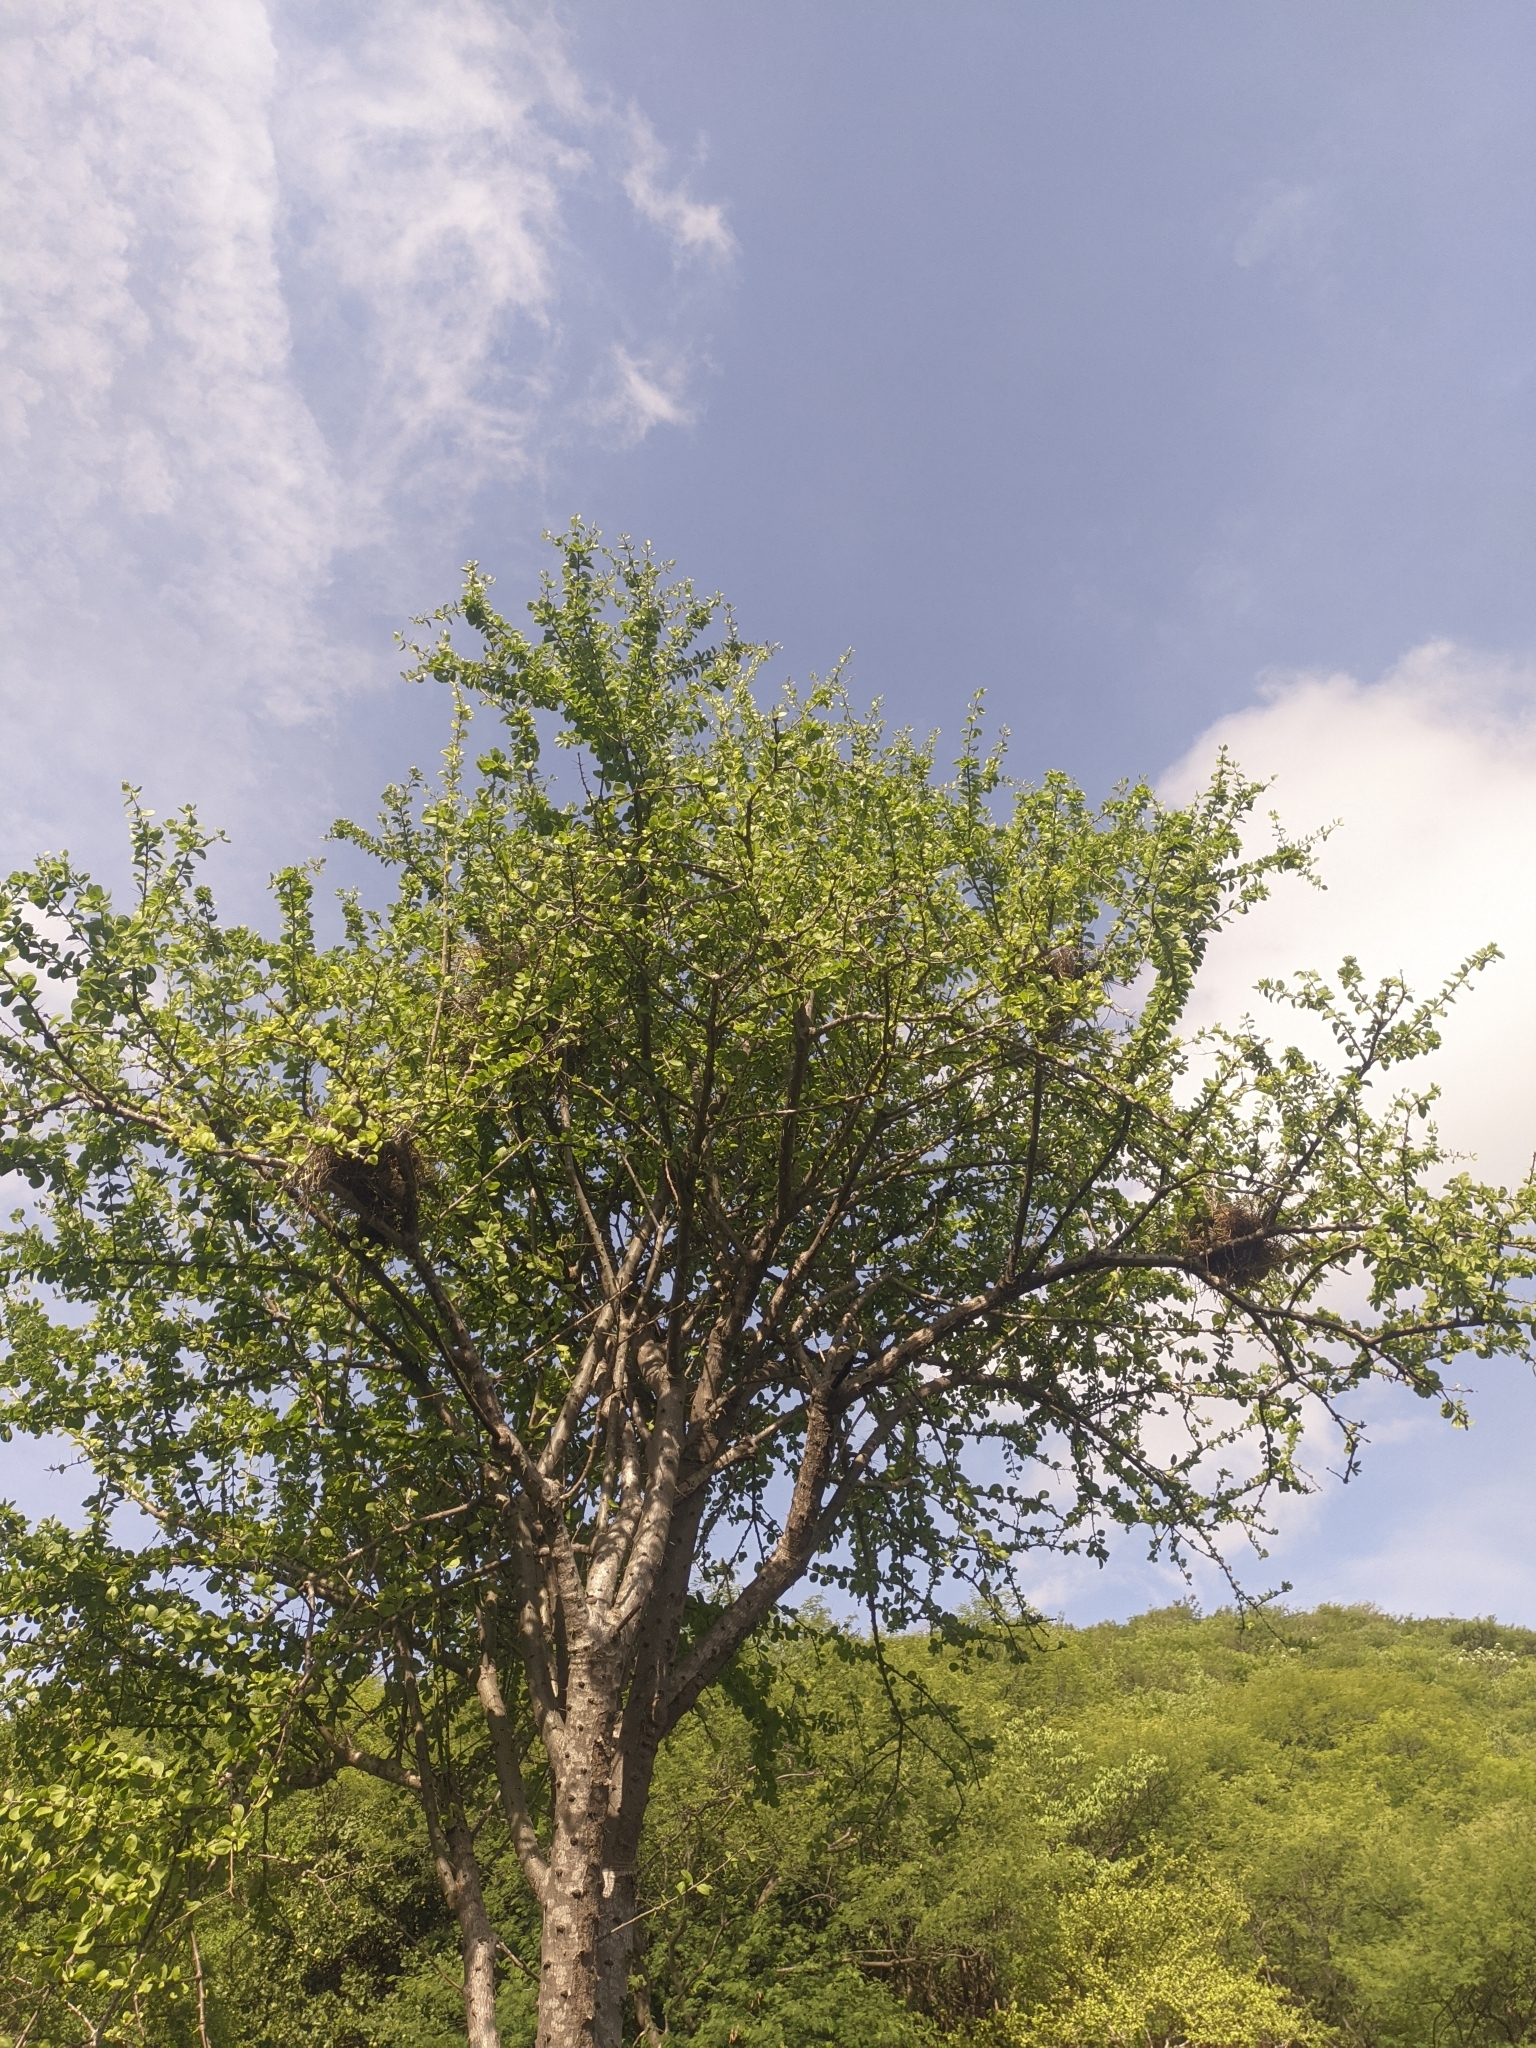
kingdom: Plantae
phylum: Tracheophyta
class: Magnoliopsida
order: Caryophyllales
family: Cactaceae
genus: Leuenbergeria
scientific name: Leuenbergeria guamacho
